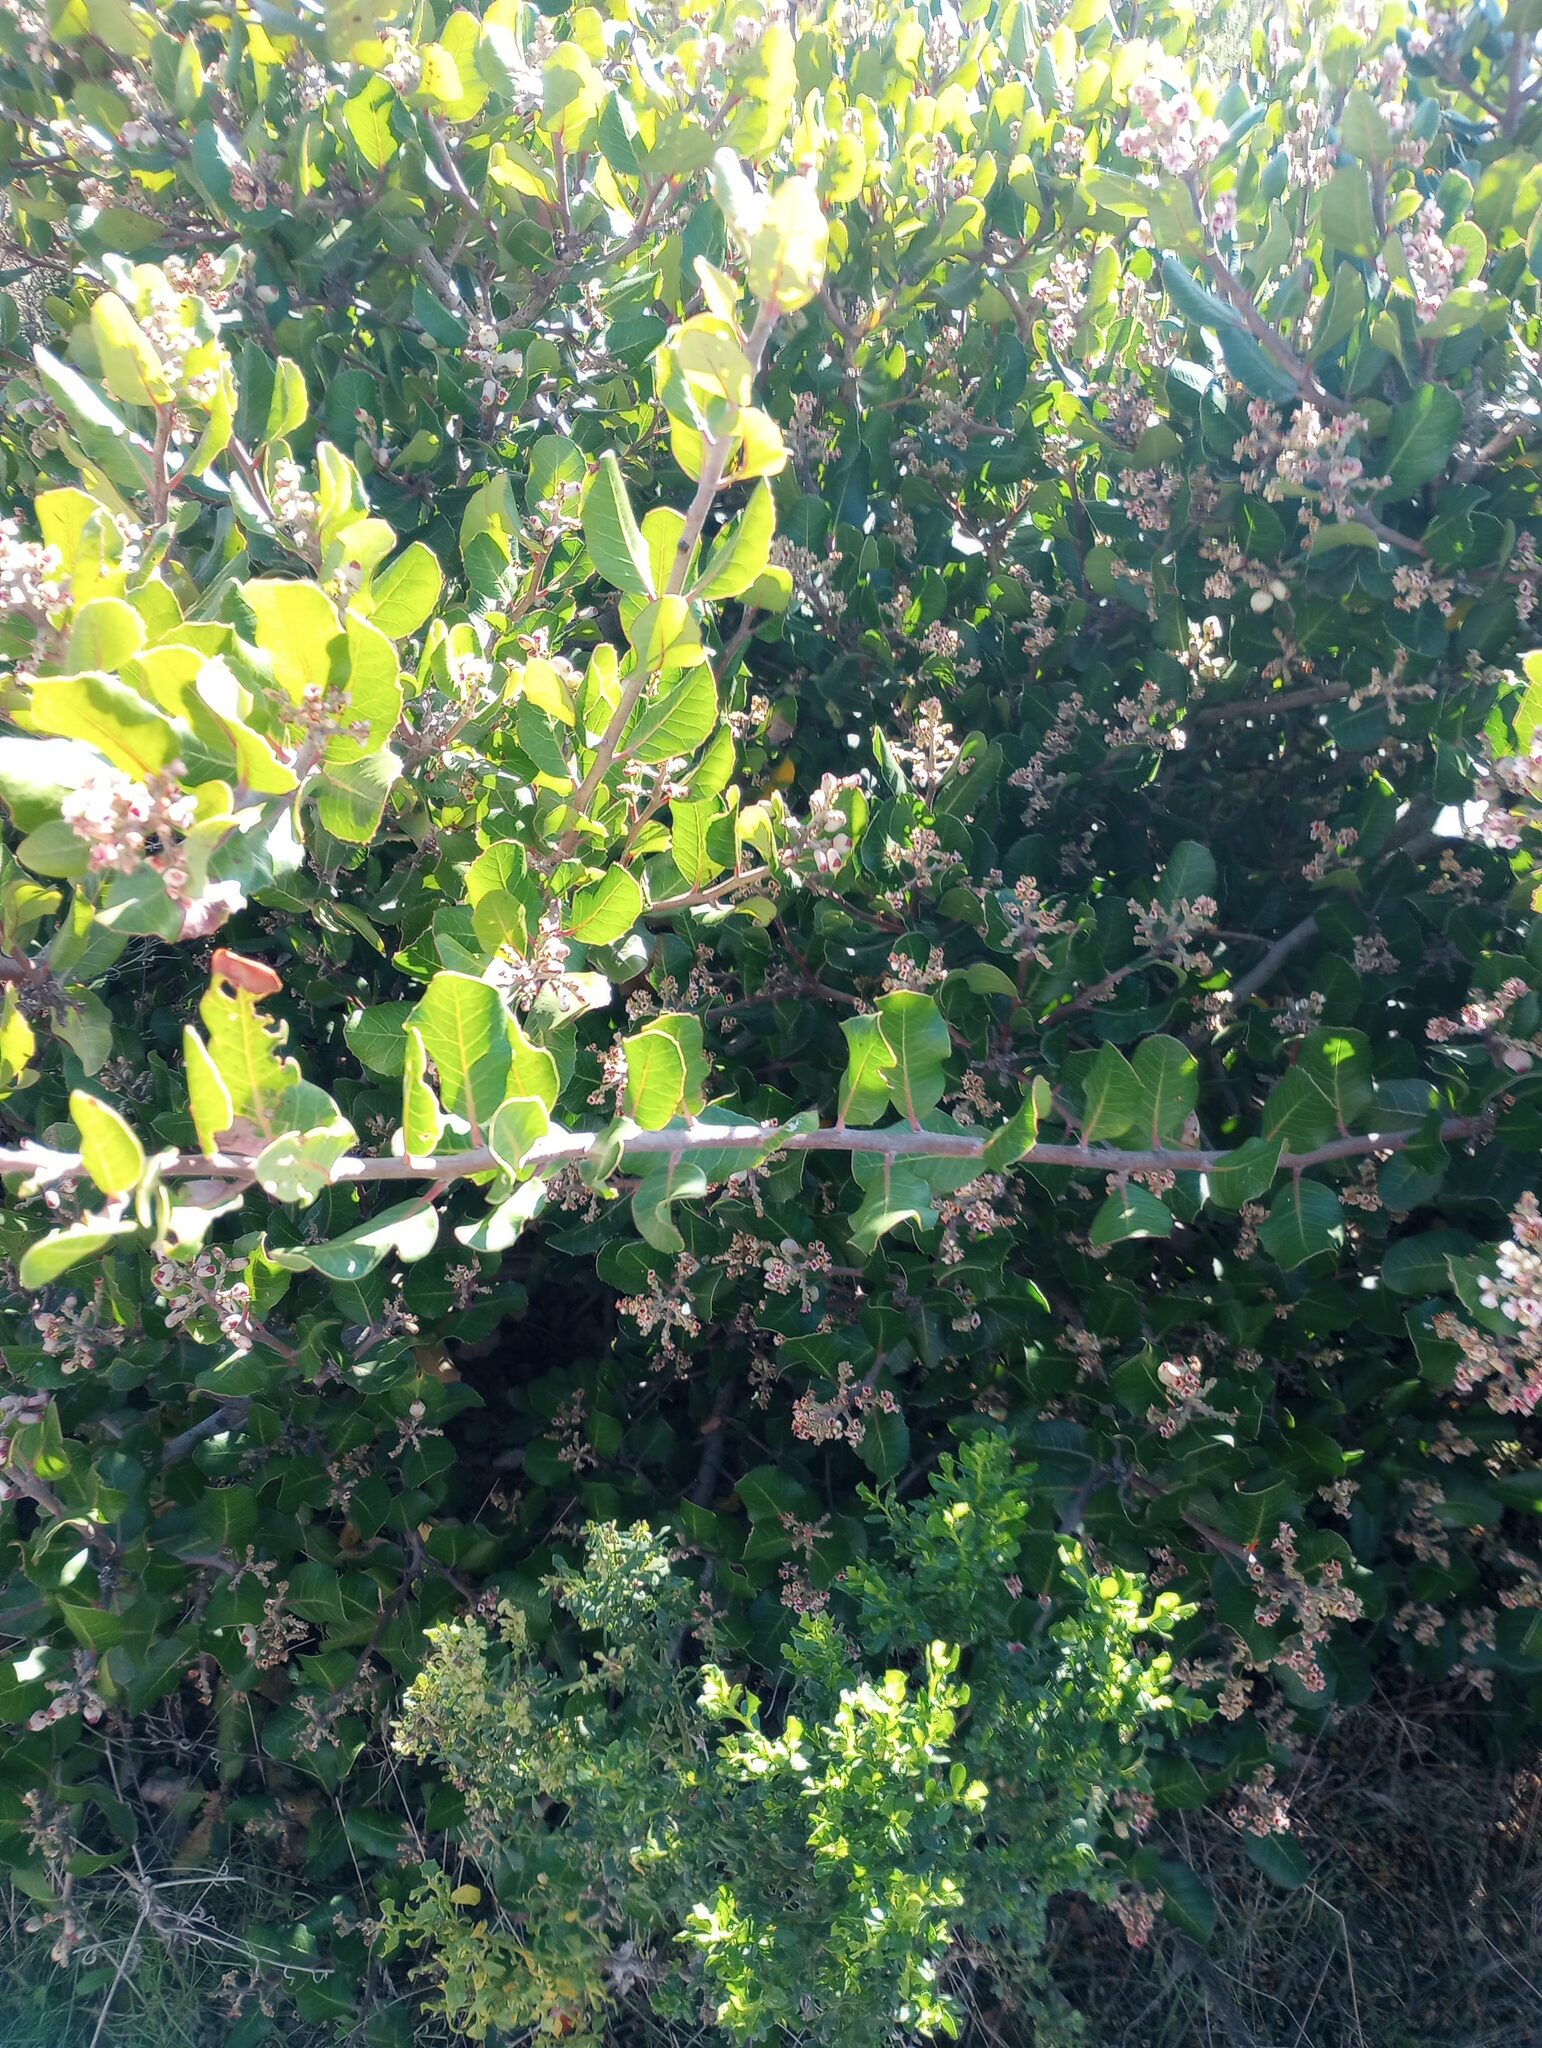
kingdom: Plantae
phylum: Tracheophyta
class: Magnoliopsida
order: Sapindales
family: Anacardiaceae
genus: Rhus
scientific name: Rhus integrifolia
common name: Lemonade sumac
